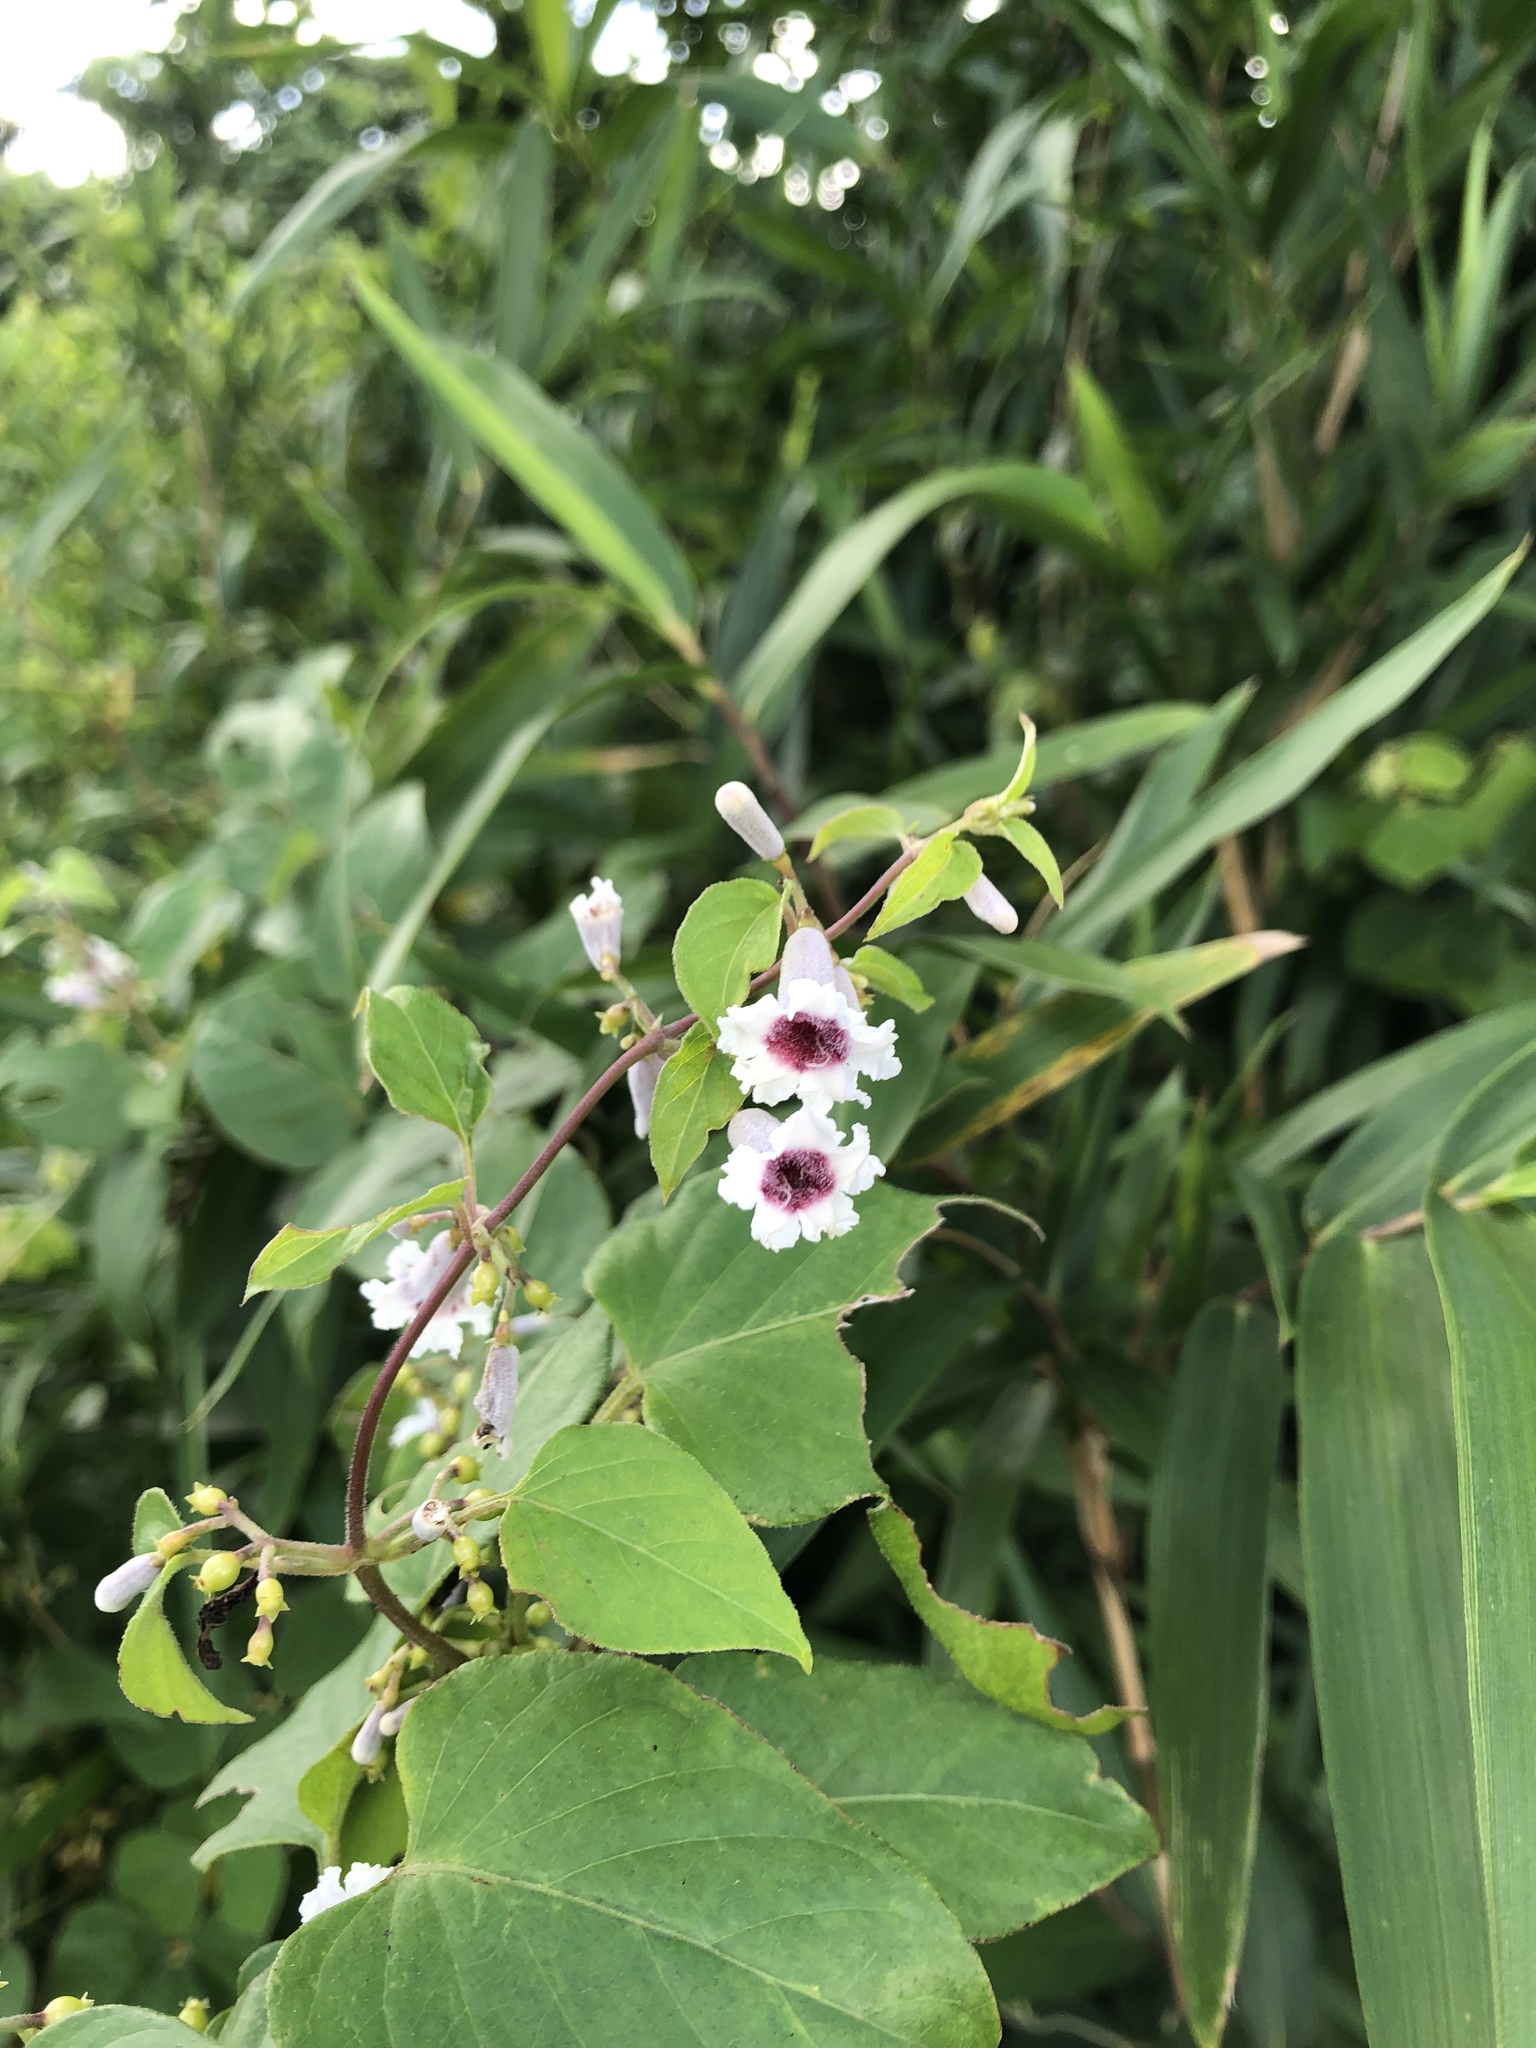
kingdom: Plantae
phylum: Tracheophyta
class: Magnoliopsida
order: Gentianales
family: Rubiaceae
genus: Paederia
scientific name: Paederia foetida
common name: Stinkvine
